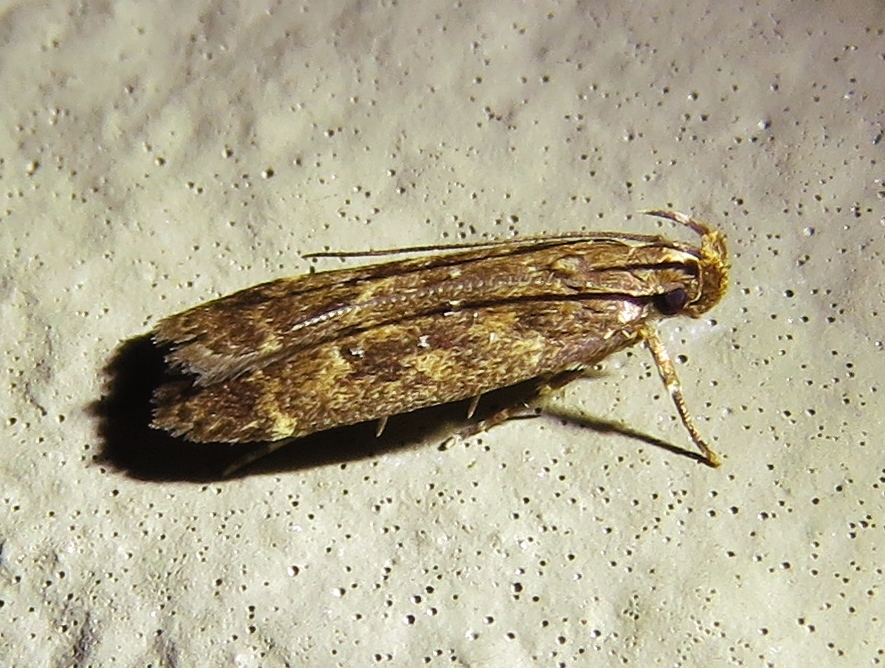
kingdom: Animalia
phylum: Arthropoda
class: Insecta
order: Lepidoptera
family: Gelechiidae
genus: Helcystogramma
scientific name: Helcystogramma melantherella
